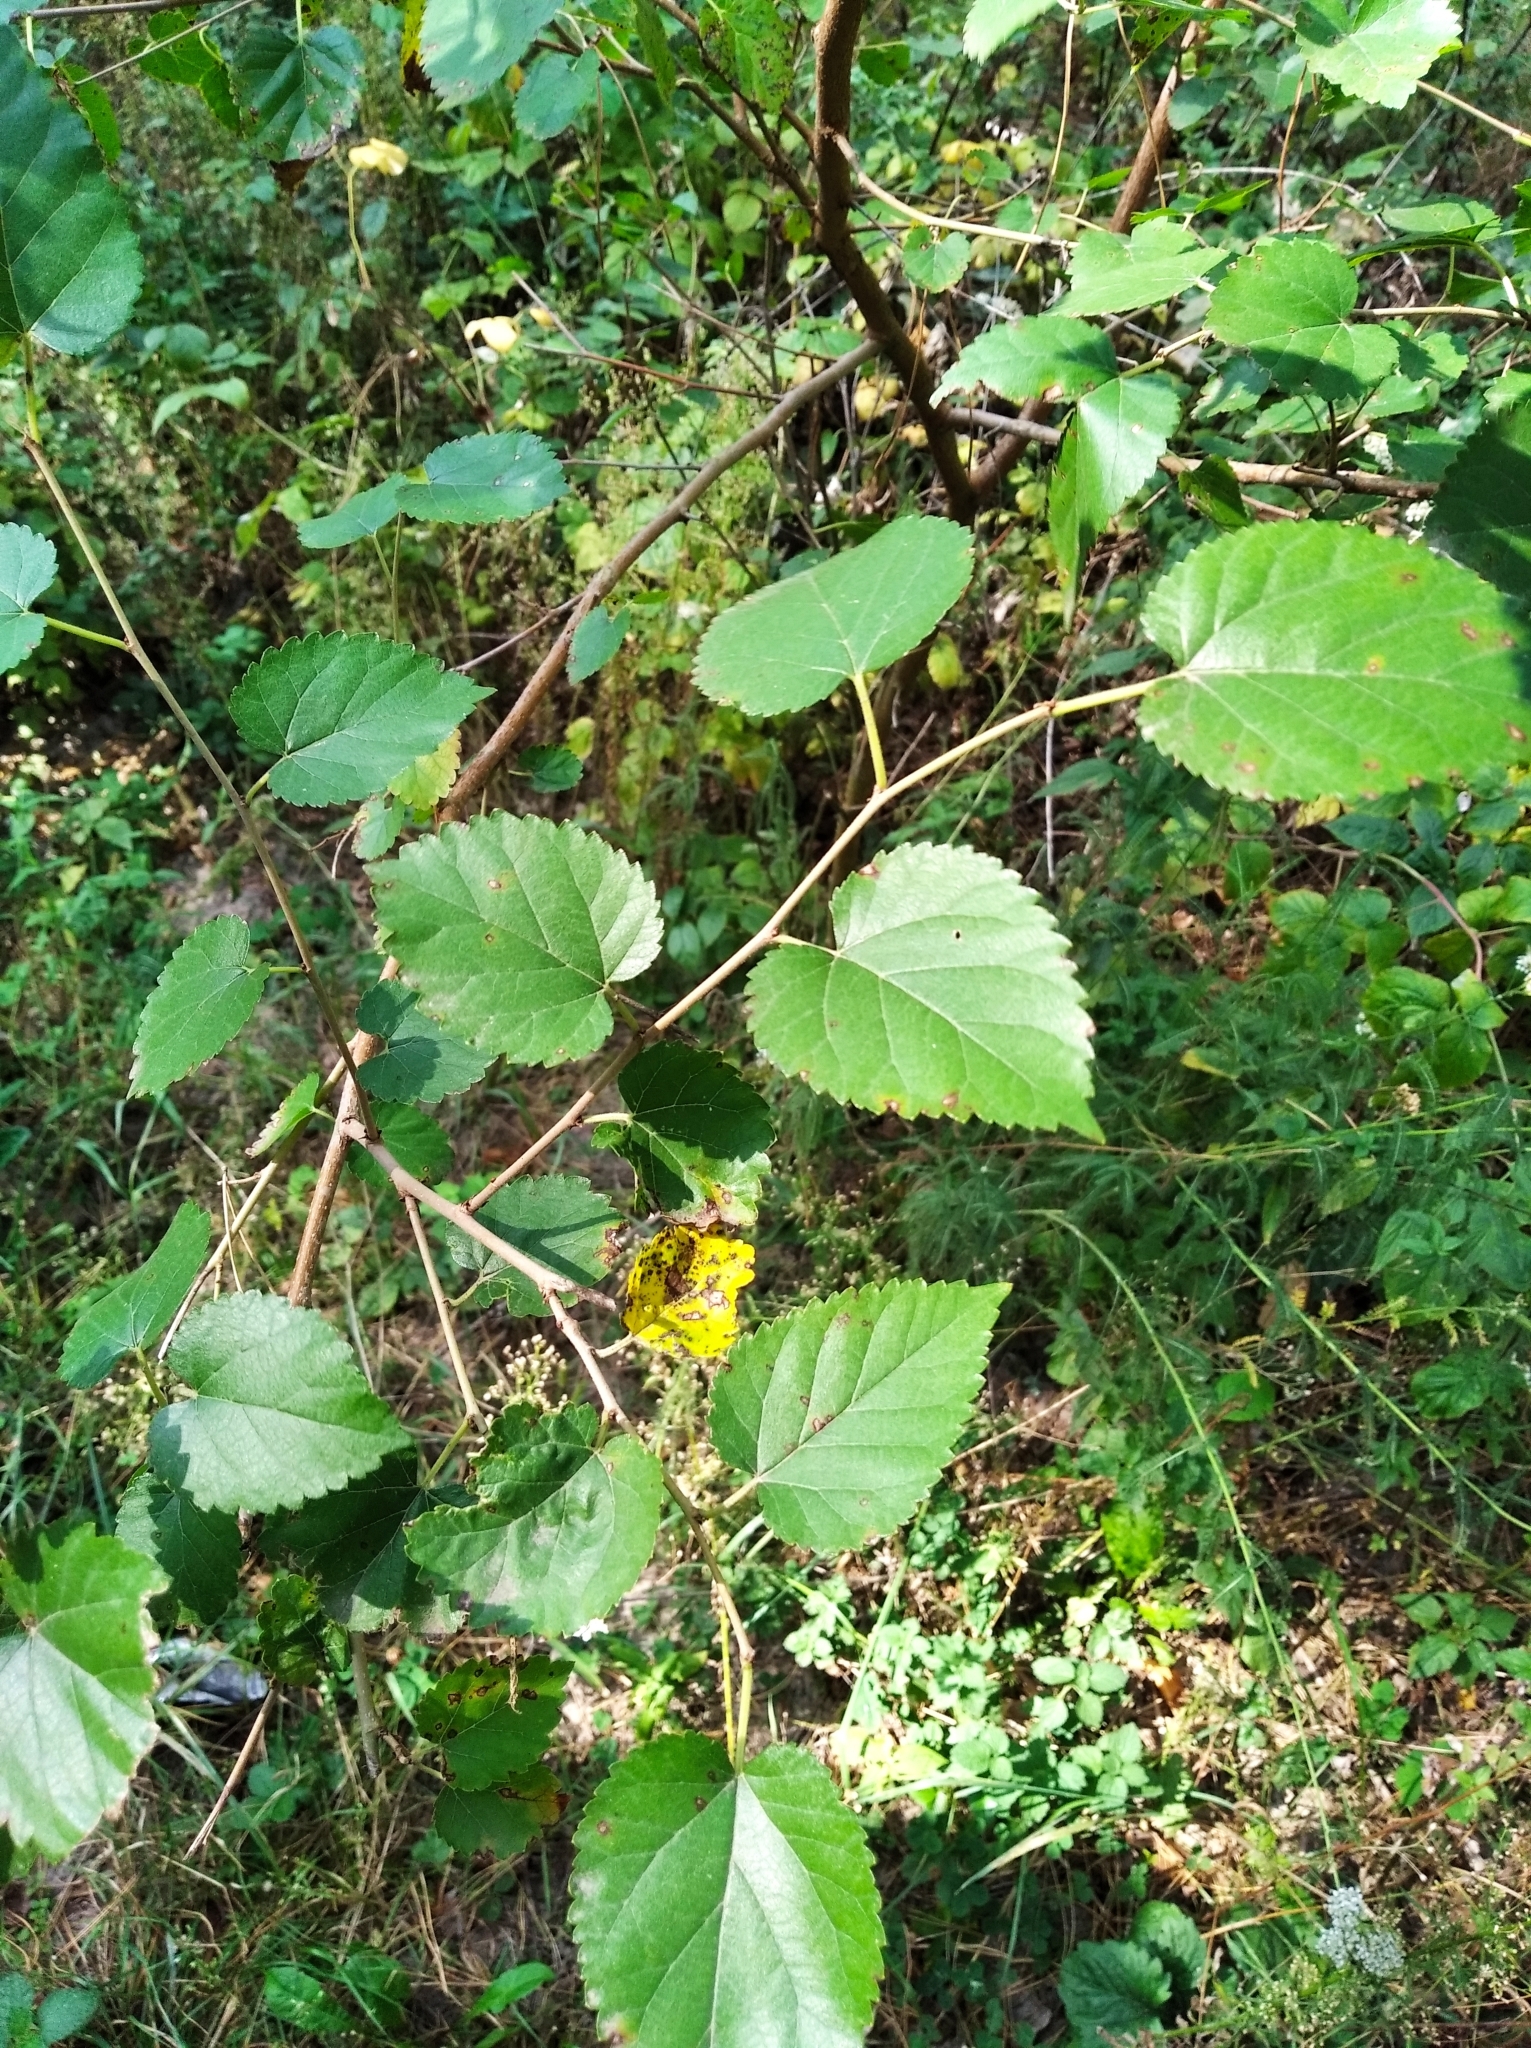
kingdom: Plantae
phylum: Tracheophyta
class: Magnoliopsida
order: Rosales
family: Moraceae
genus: Morus
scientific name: Morus alba
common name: White mulberry
